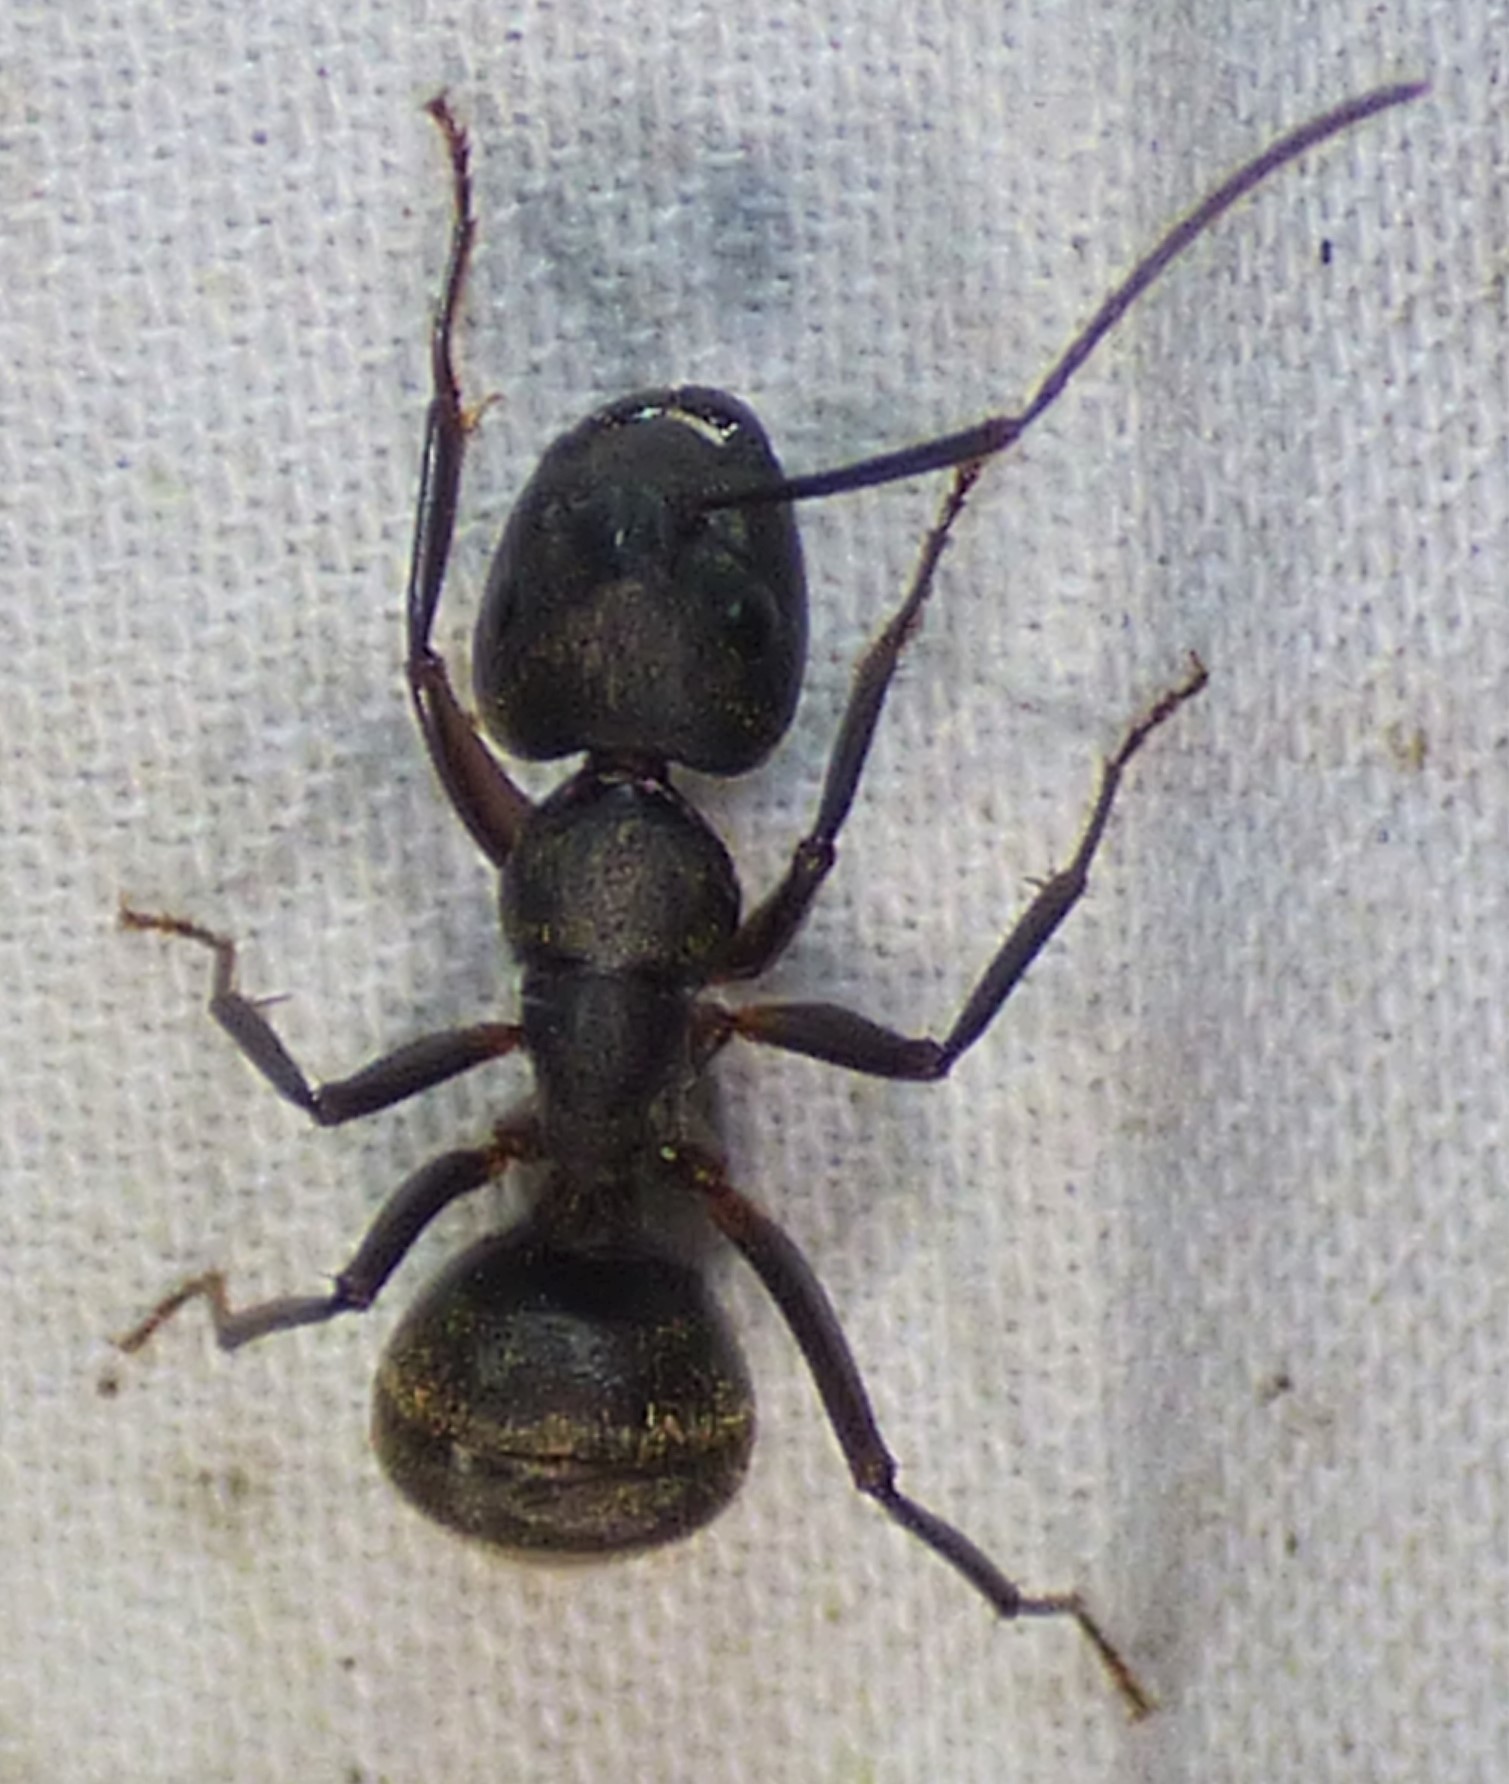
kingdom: Animalia
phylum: Arthropoda
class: Insecta
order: Hymenoptera
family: Formicidae
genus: Camponotus
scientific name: Camponotus pennsylvanicus
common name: Black carpenter ant
